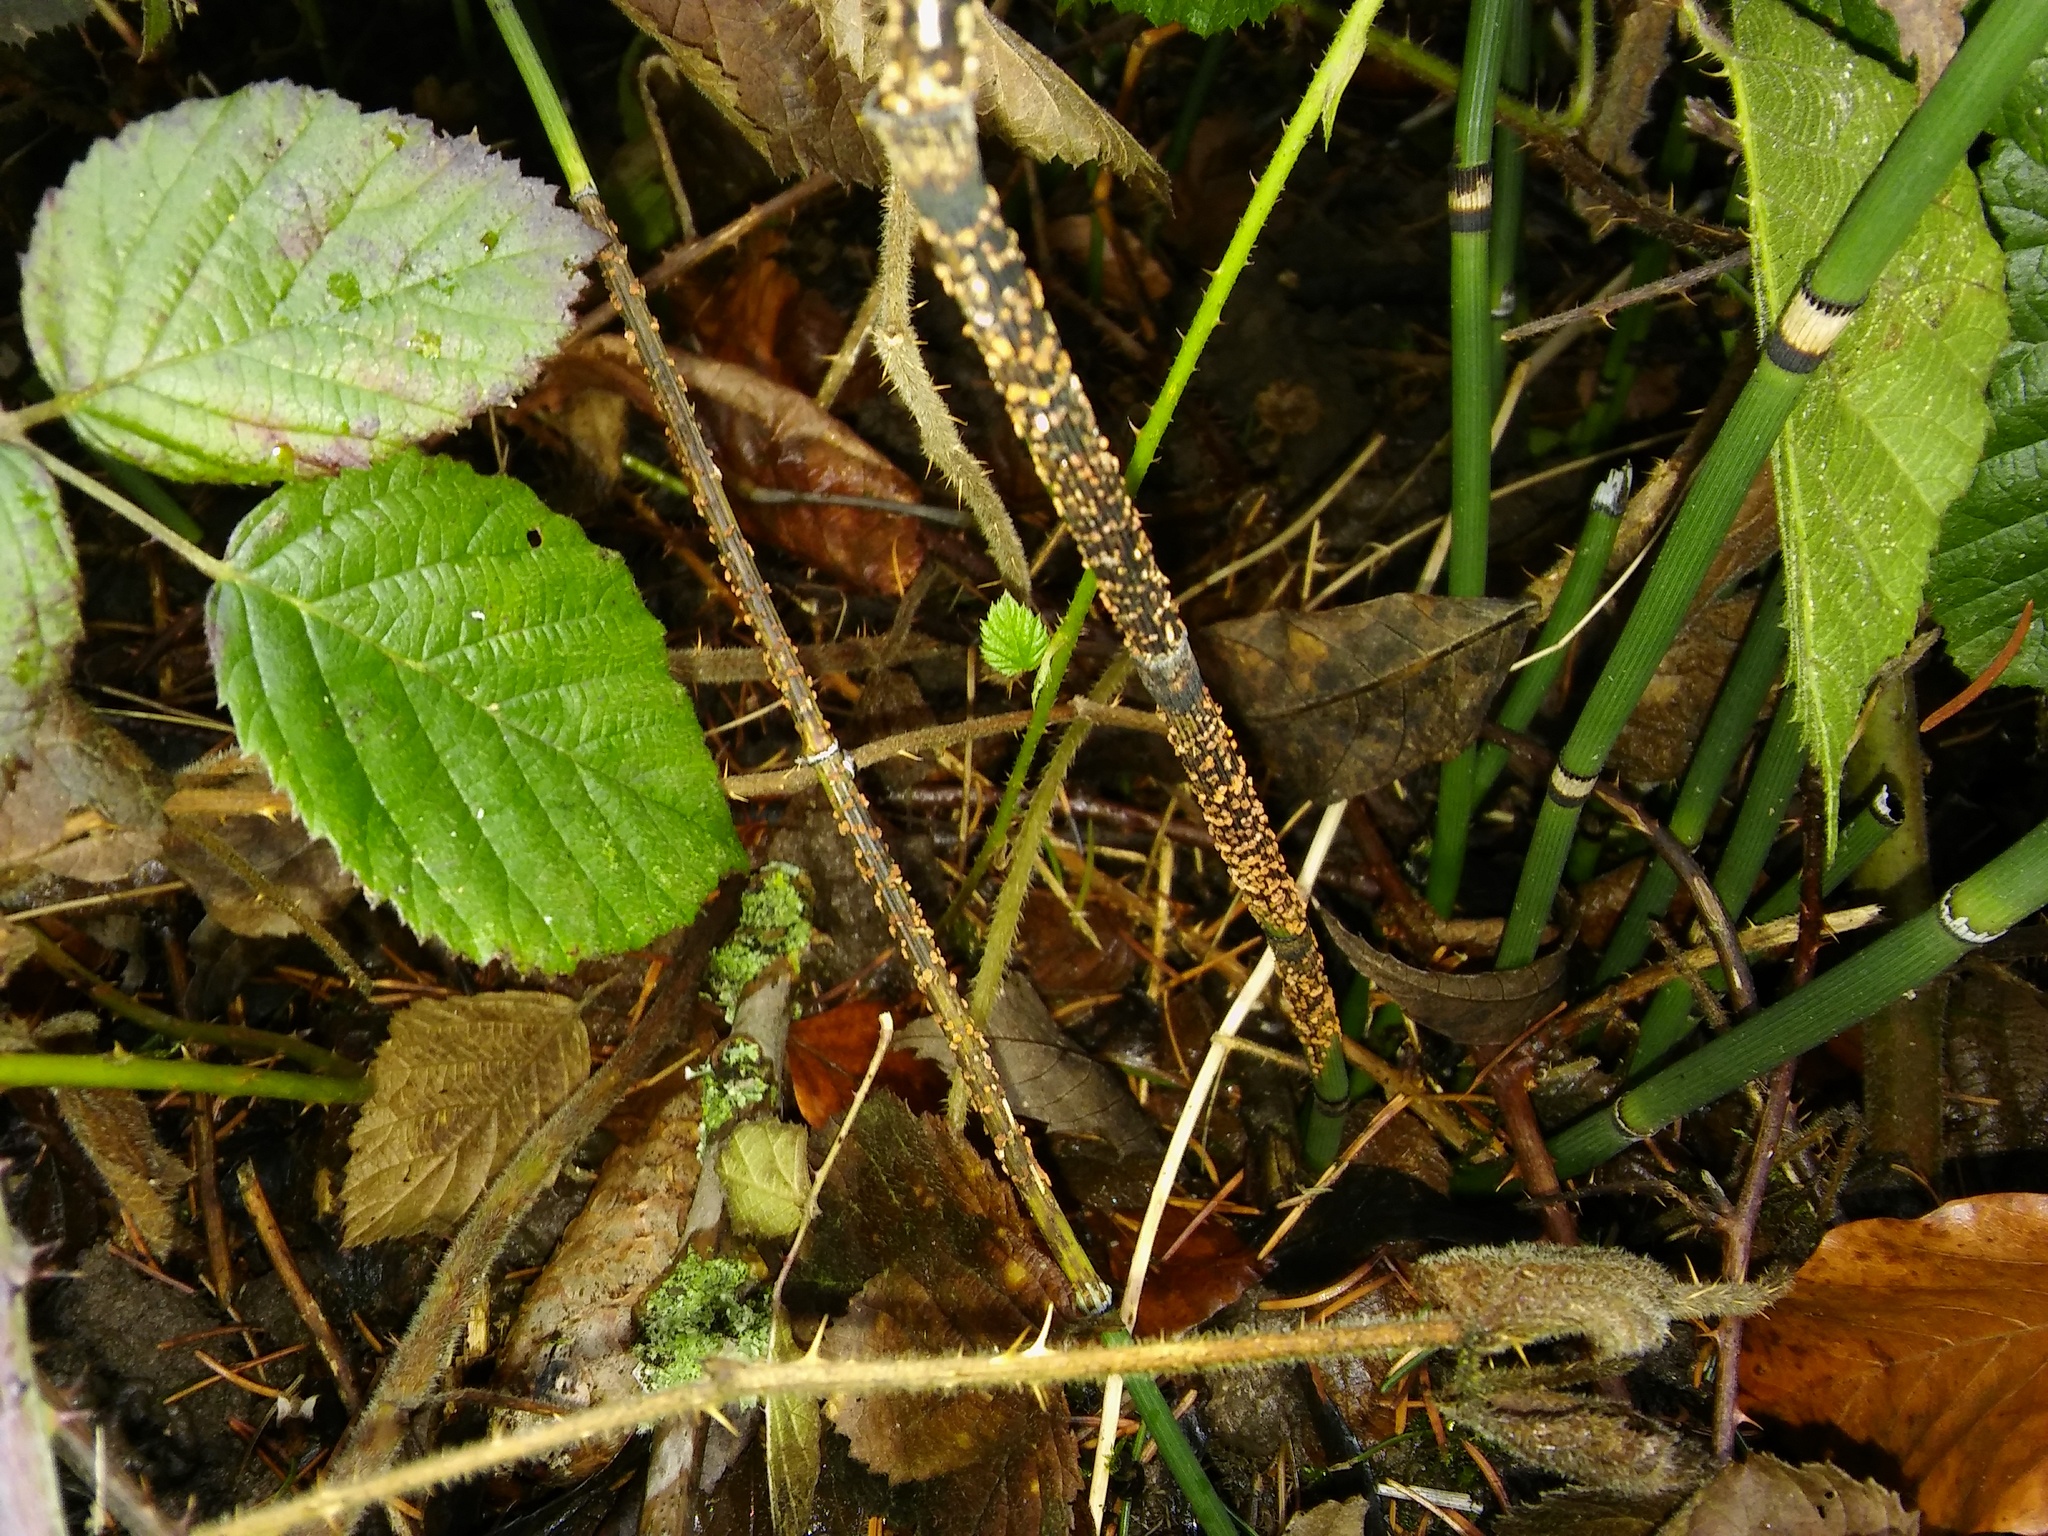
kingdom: Fungi
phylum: Ascomycota
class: Leotiomycetes
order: Helotiales
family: Helotiaceae
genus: Stamnaria
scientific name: Stamnaria americana
